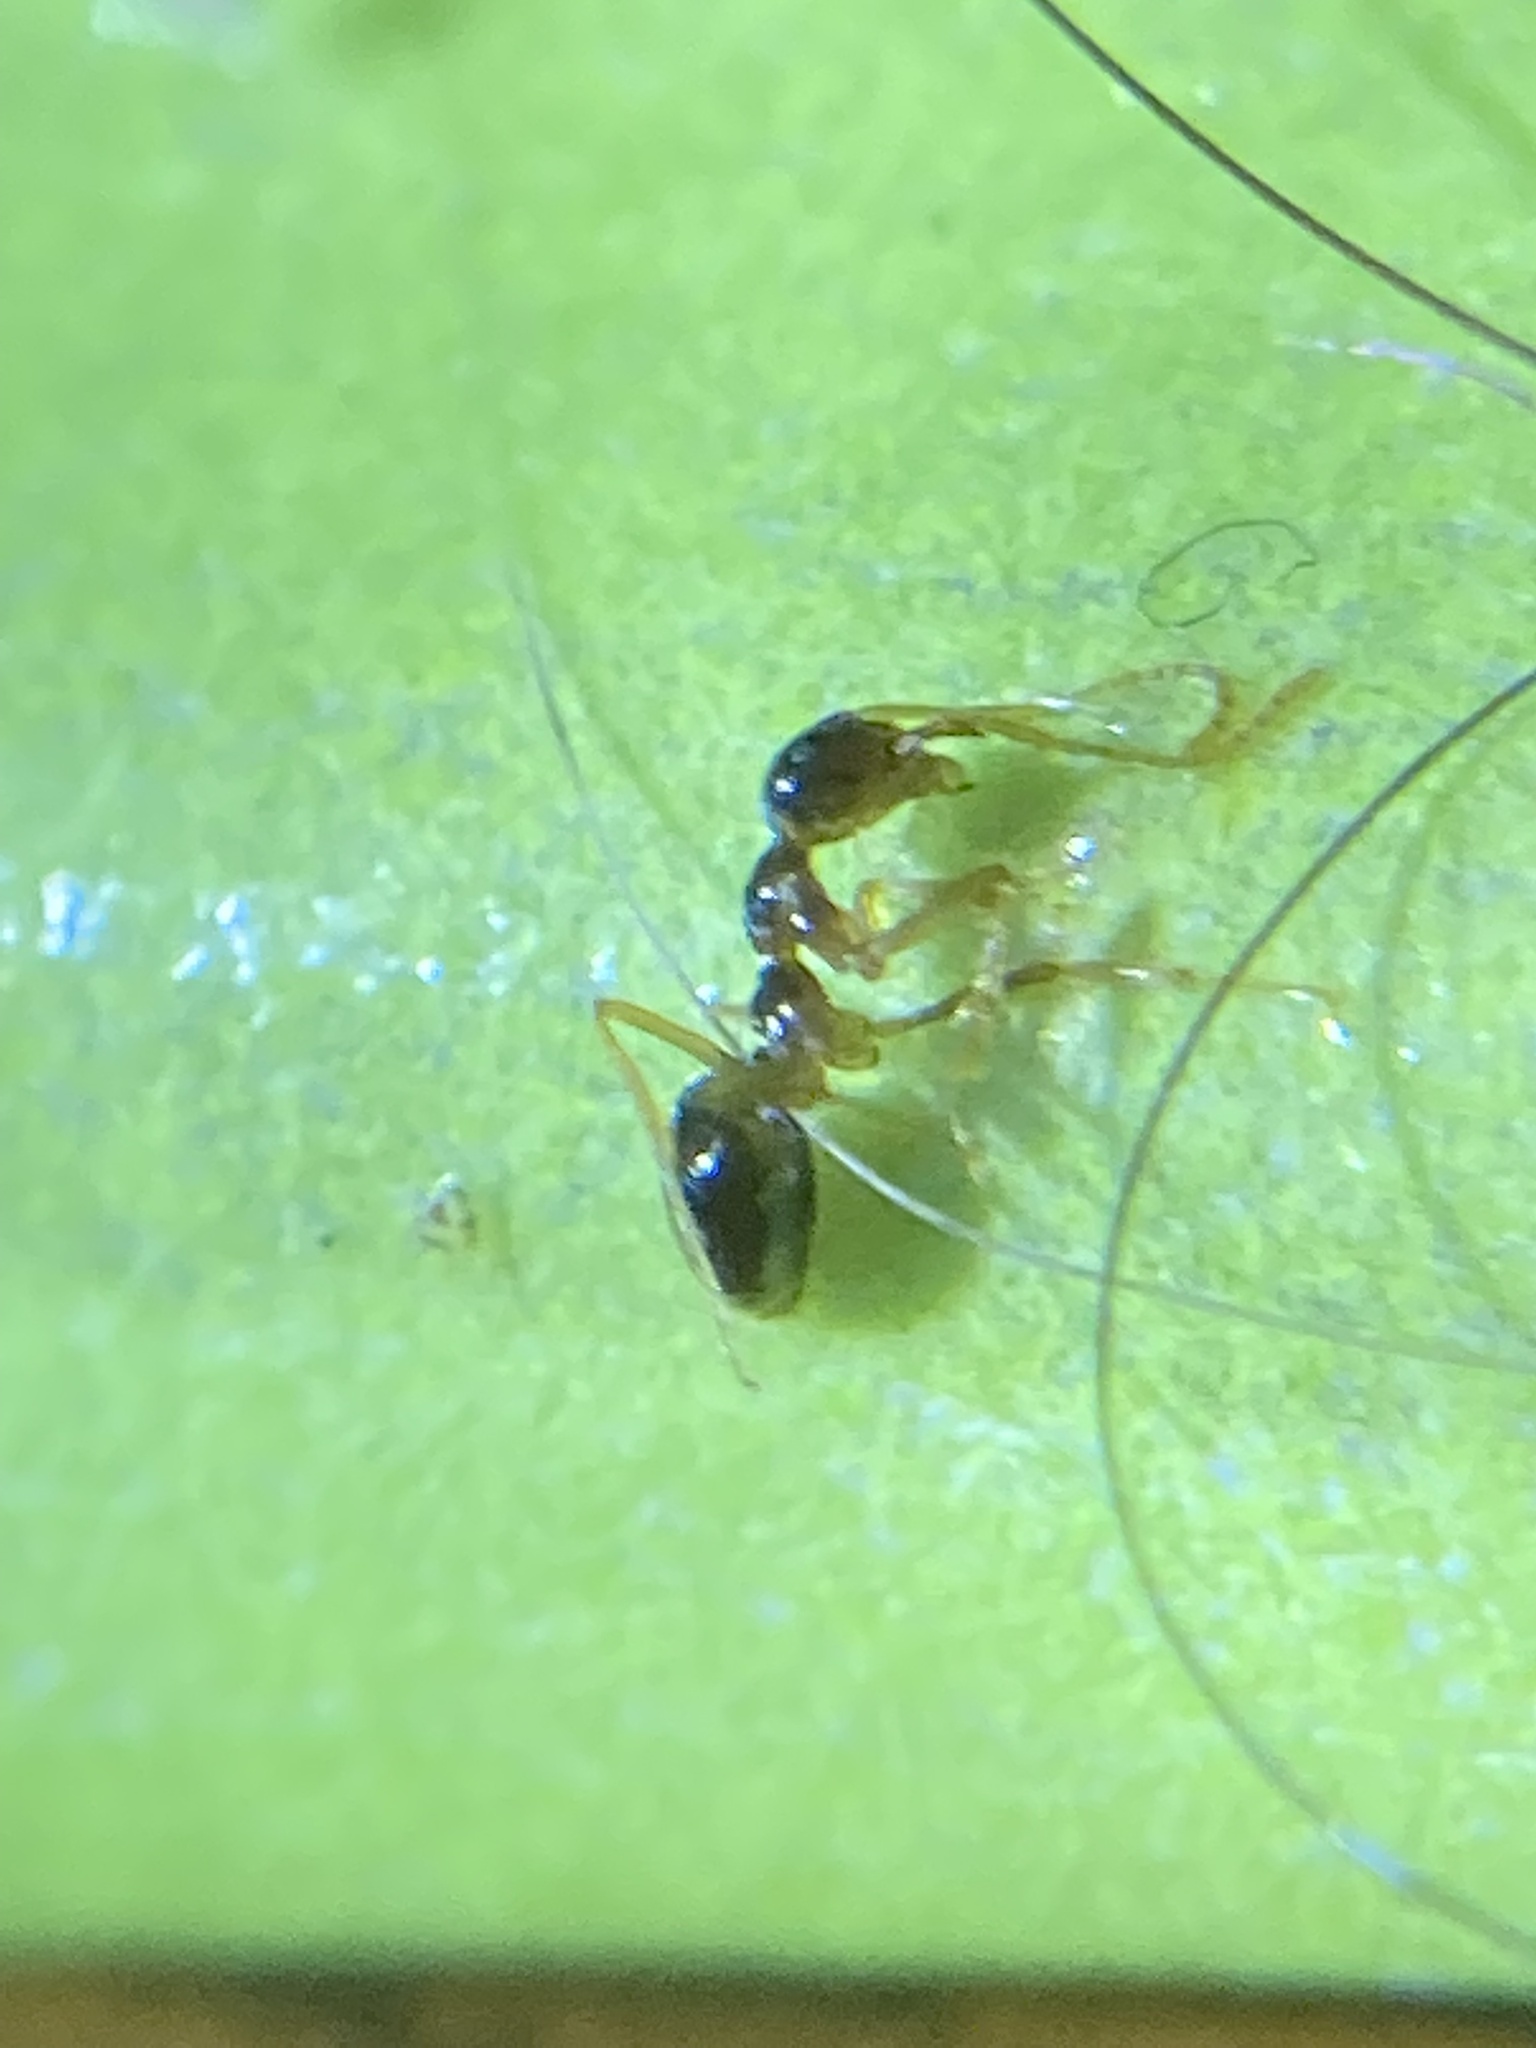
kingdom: Animalia
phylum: Arthropoda
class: Insecta
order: Hymenoptera
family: Formicidae
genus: Prenolepis
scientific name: Prenolepis imparis
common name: Small honey ant
